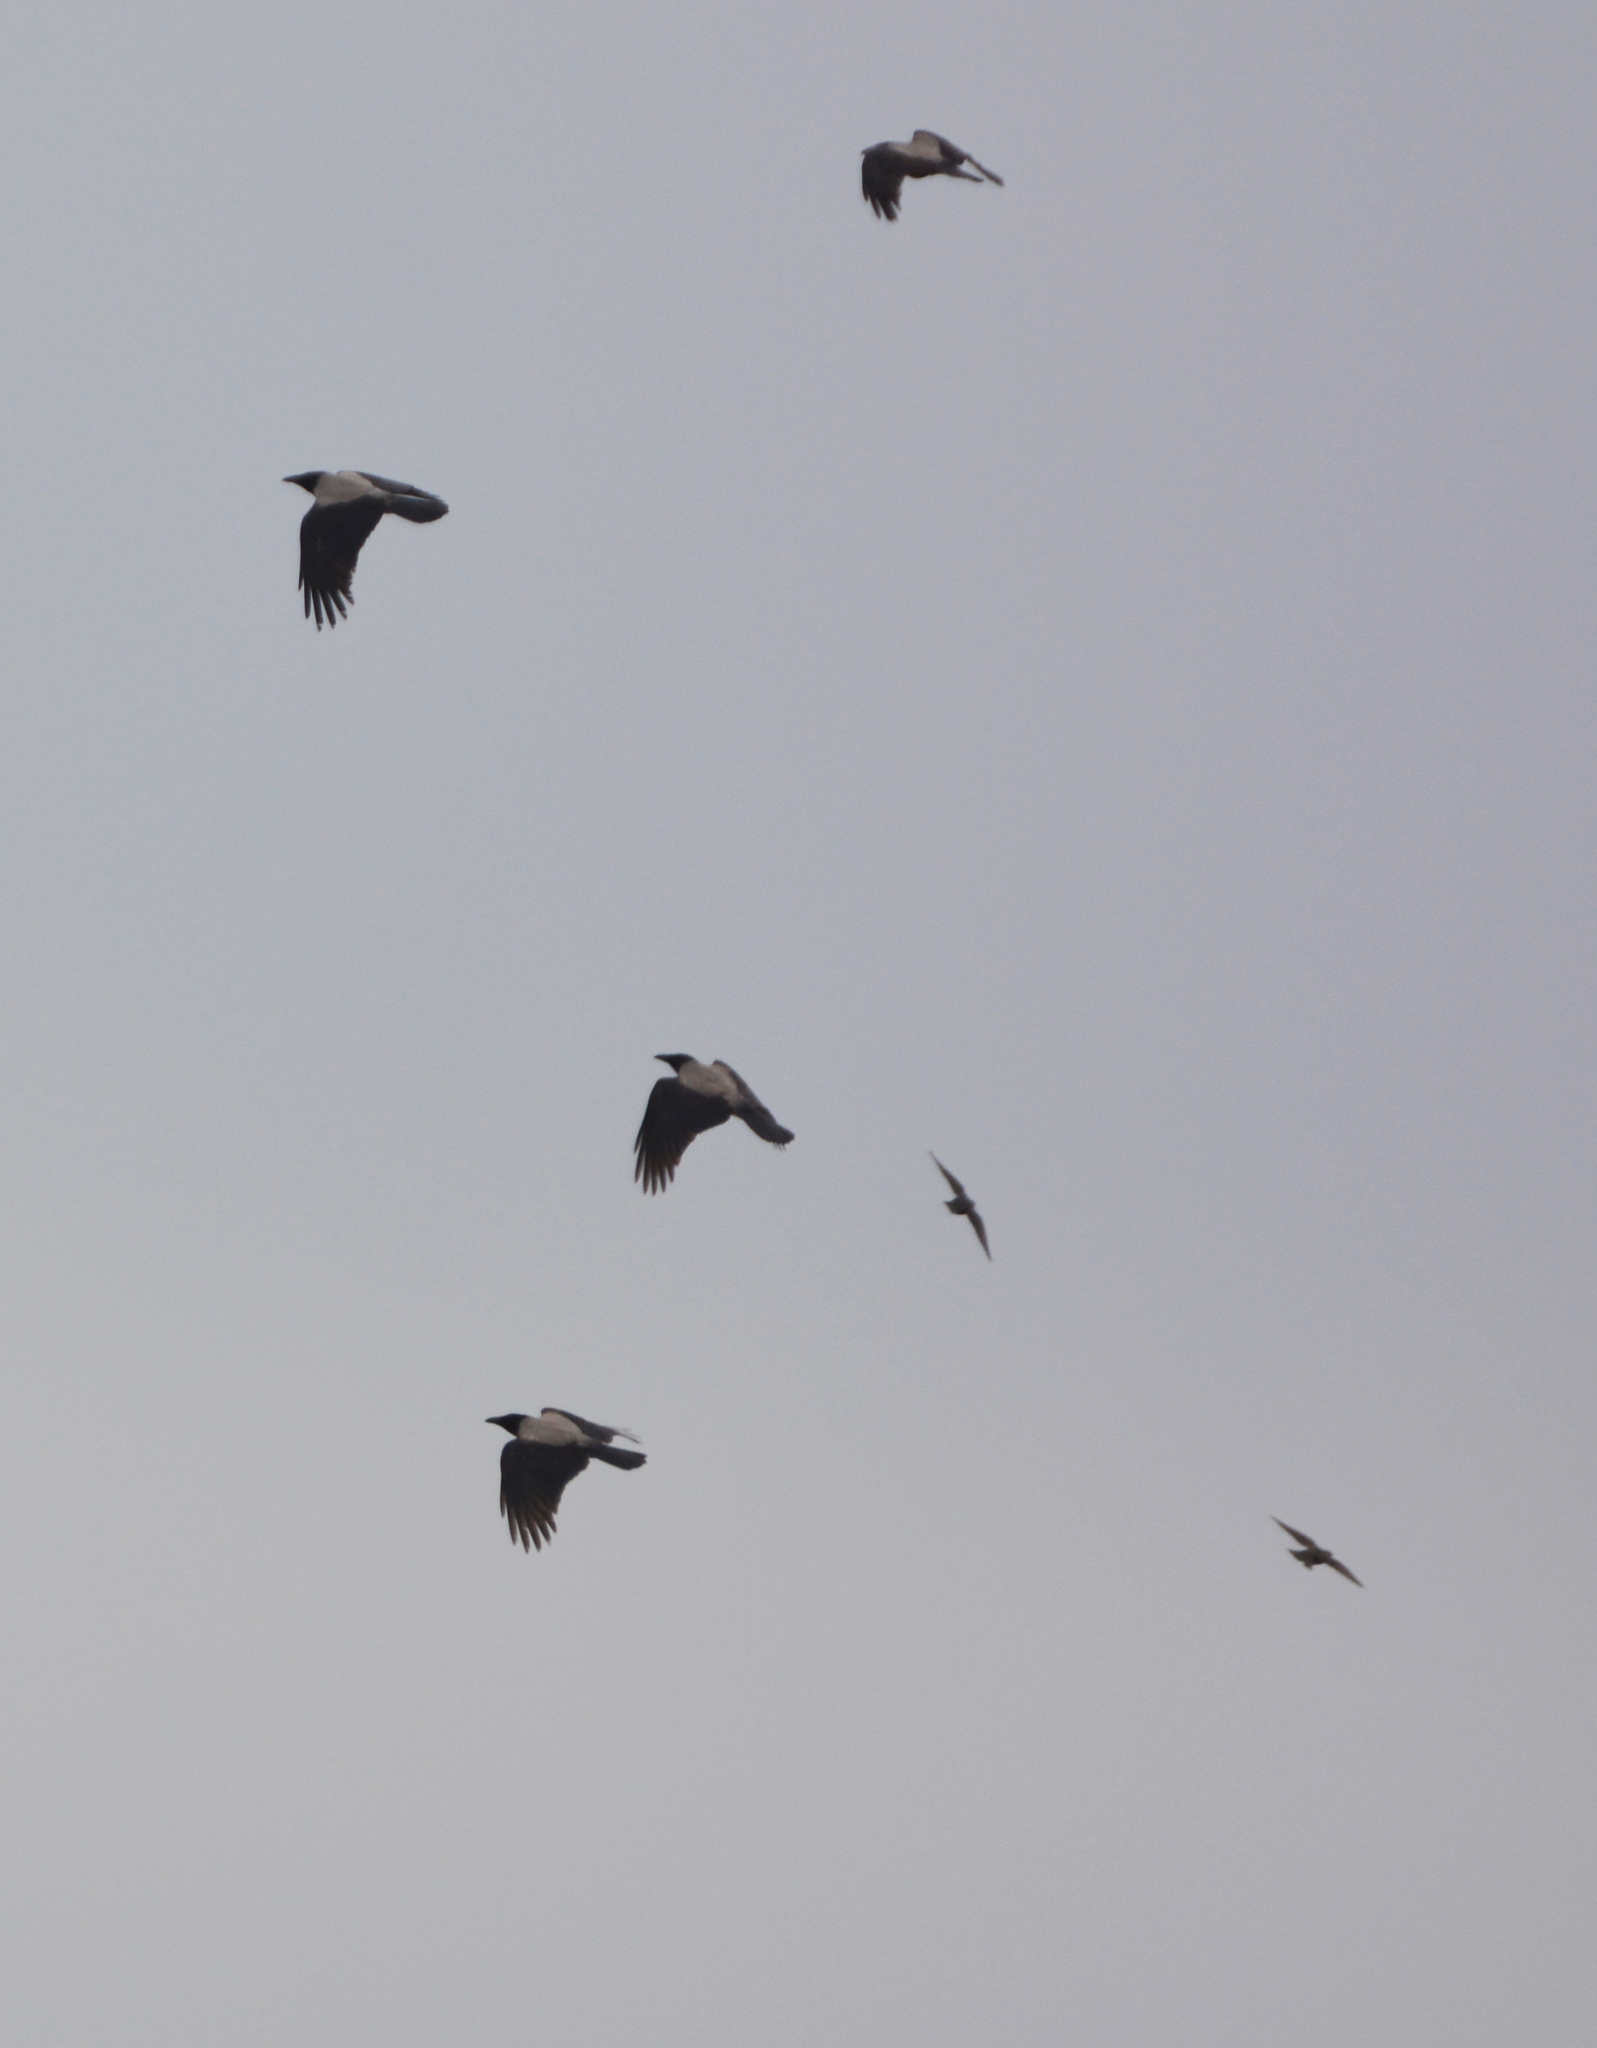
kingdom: Animalia
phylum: Chordata
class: Aves
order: Passeriformes
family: Corvidae
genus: Corvus
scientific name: Corvus cornix
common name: Hooded crow
